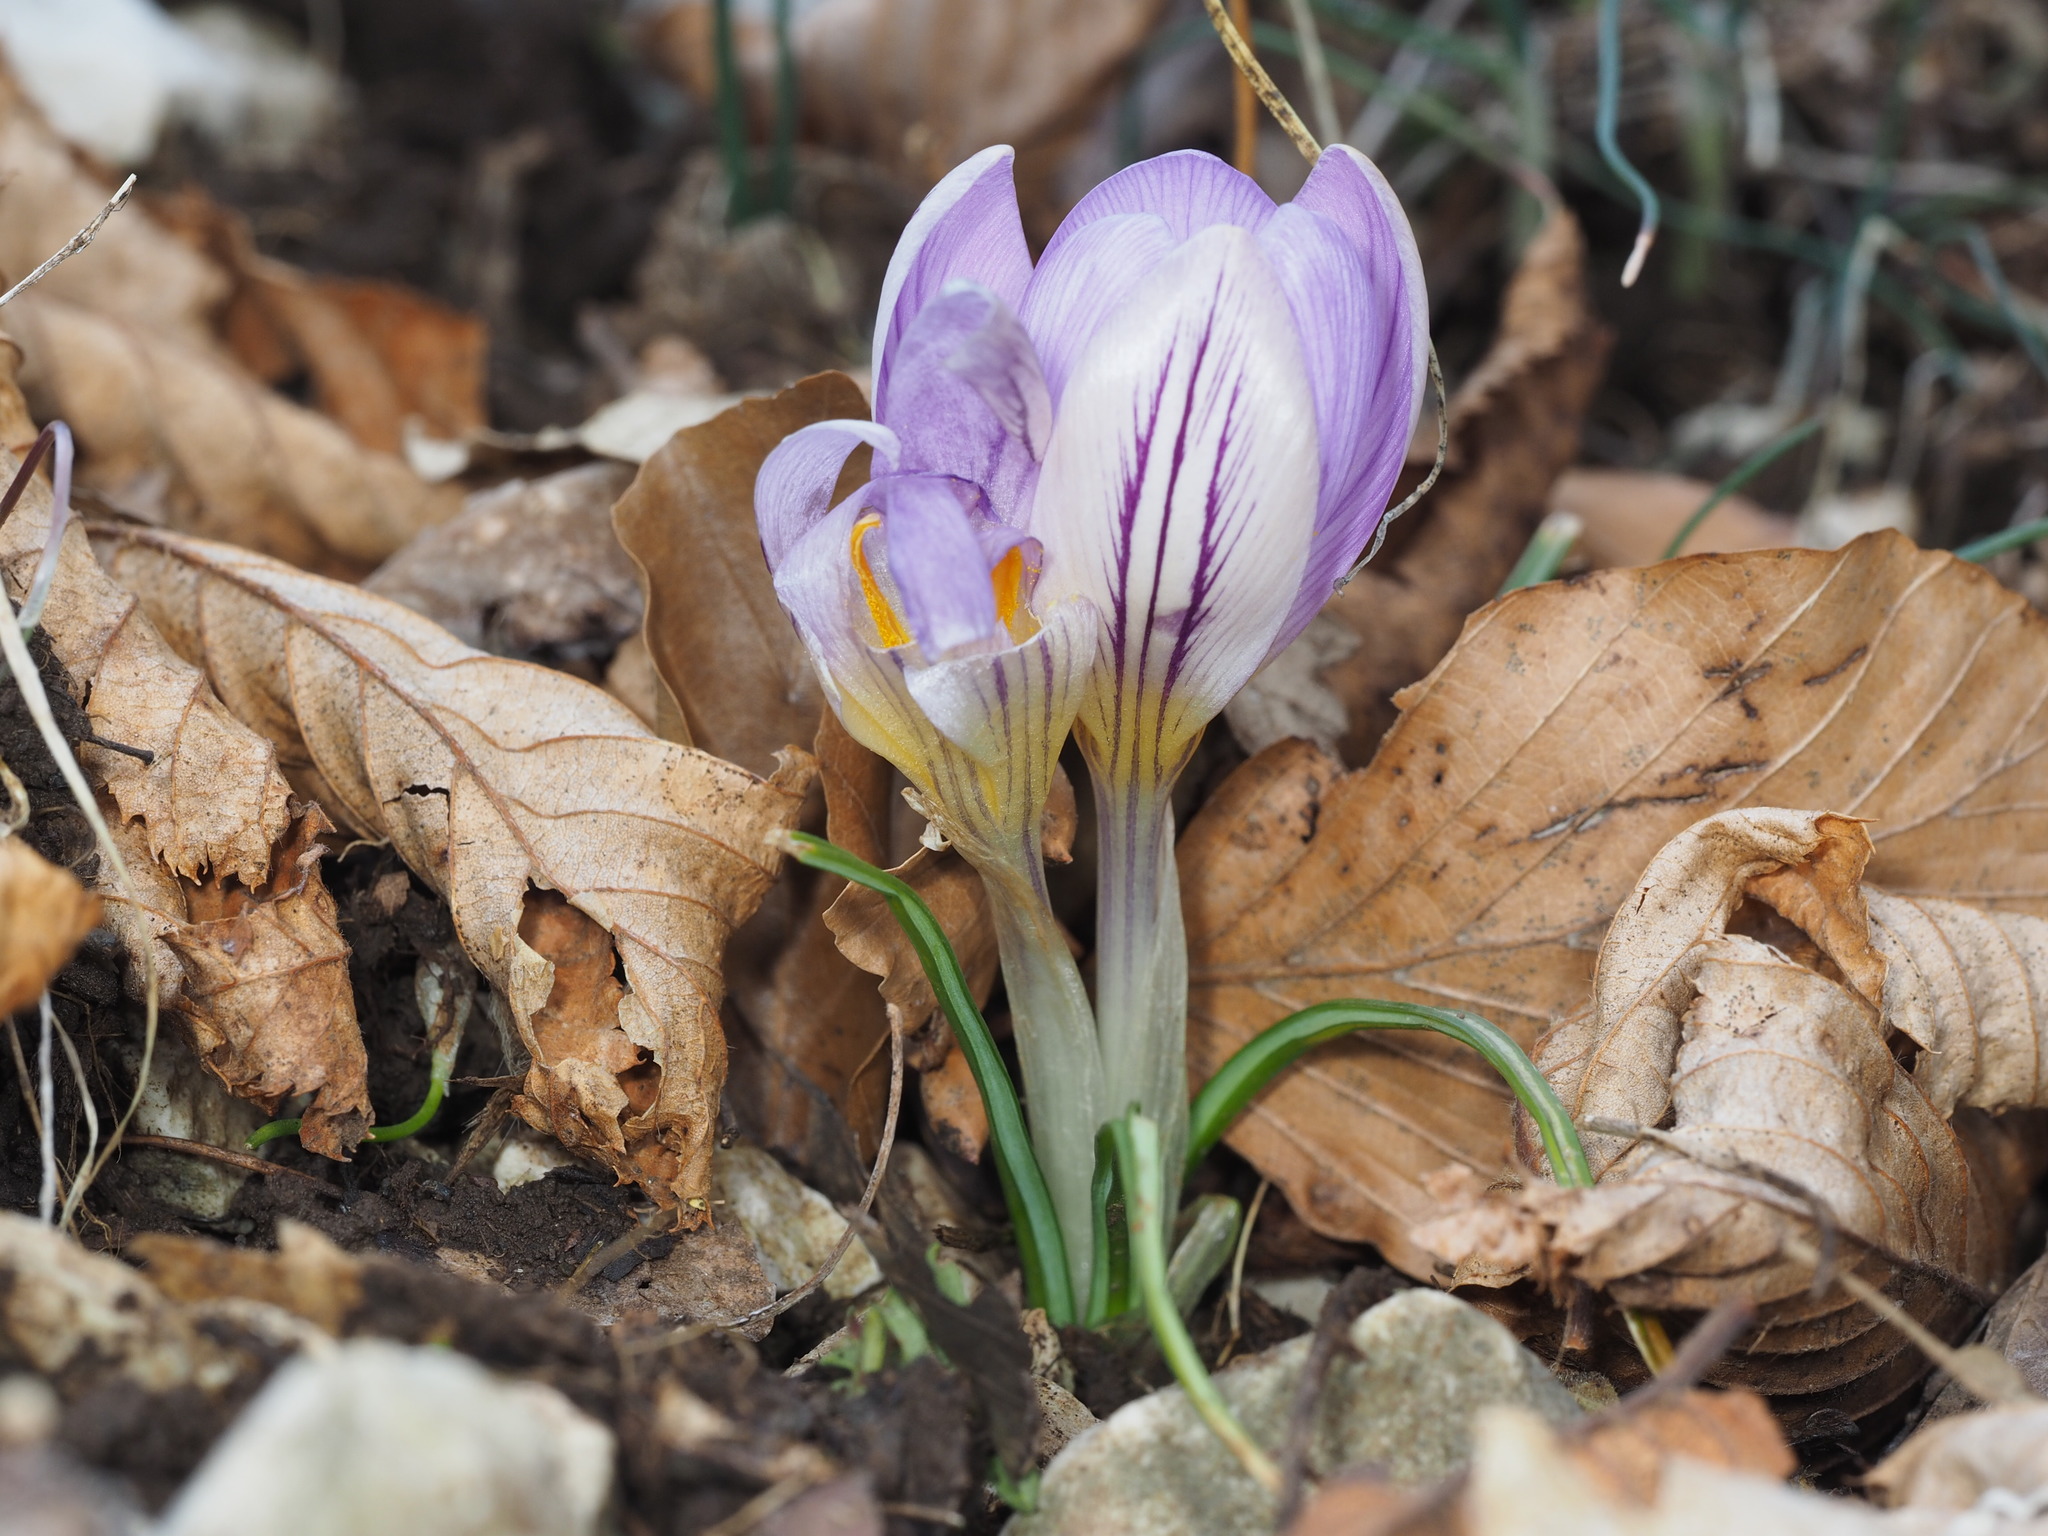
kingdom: Plantae
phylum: Tracheophyta
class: Liliopsida
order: Asparagales
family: Iridaceae
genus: Crocus
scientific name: Crocus biflorus
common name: Silvery crocus
